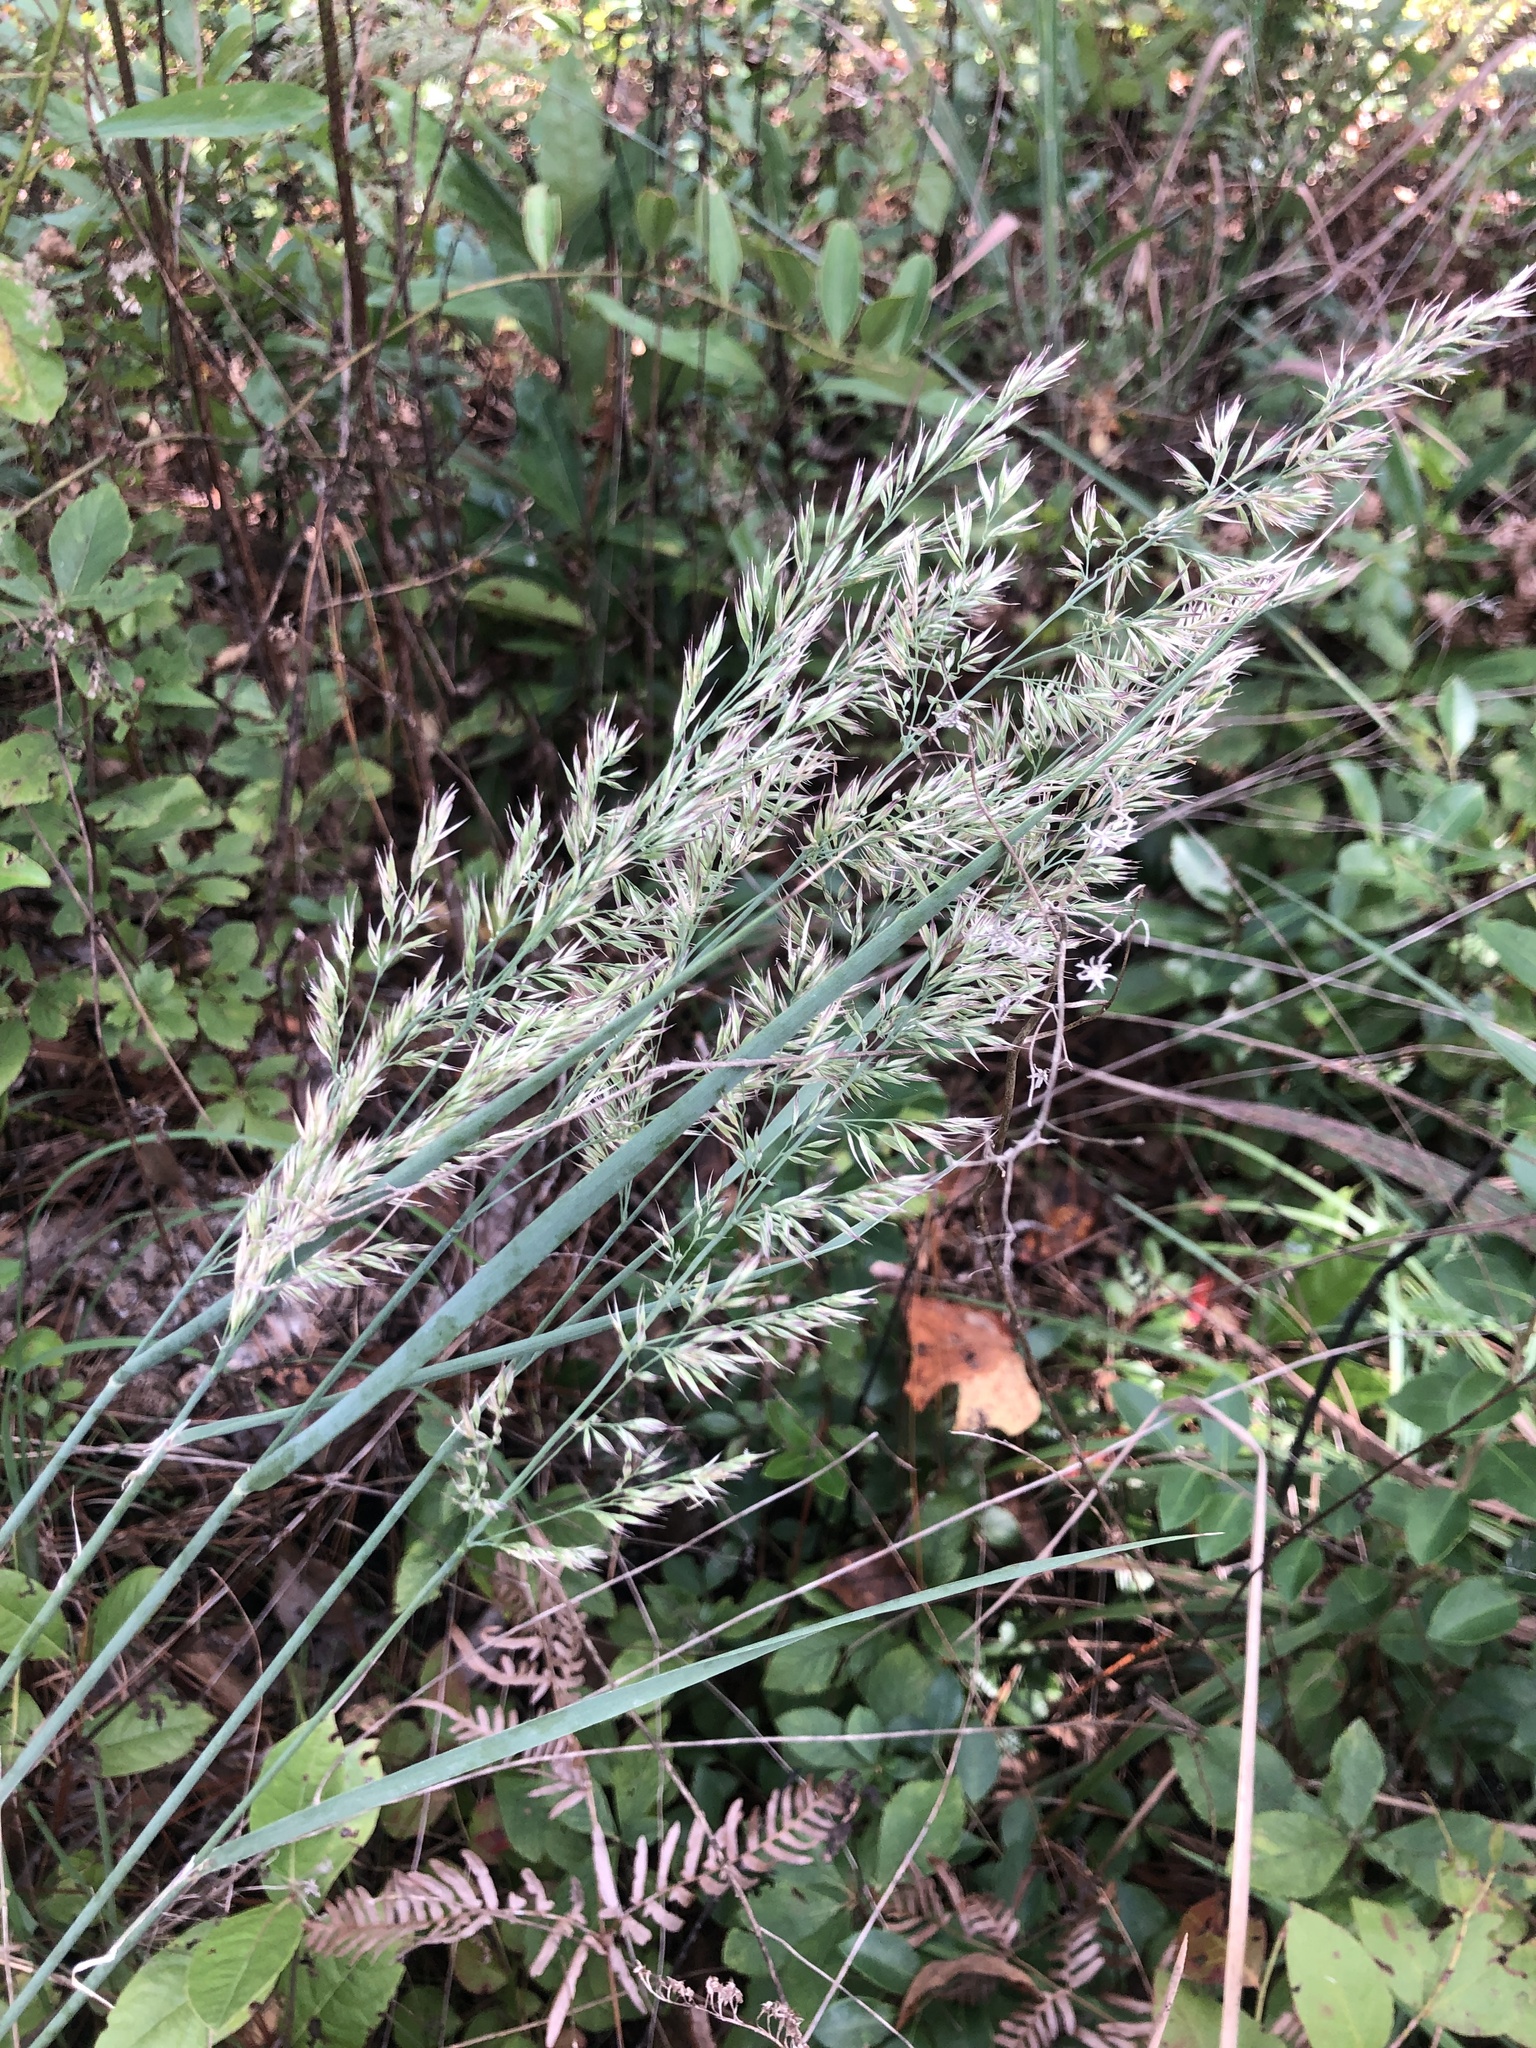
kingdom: Plantae
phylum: Tracheophyta
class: Liliopsida
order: Poales
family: Poaceae
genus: Greeneochloa
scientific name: Greeneochloa coarctata
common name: Small reedgrass
